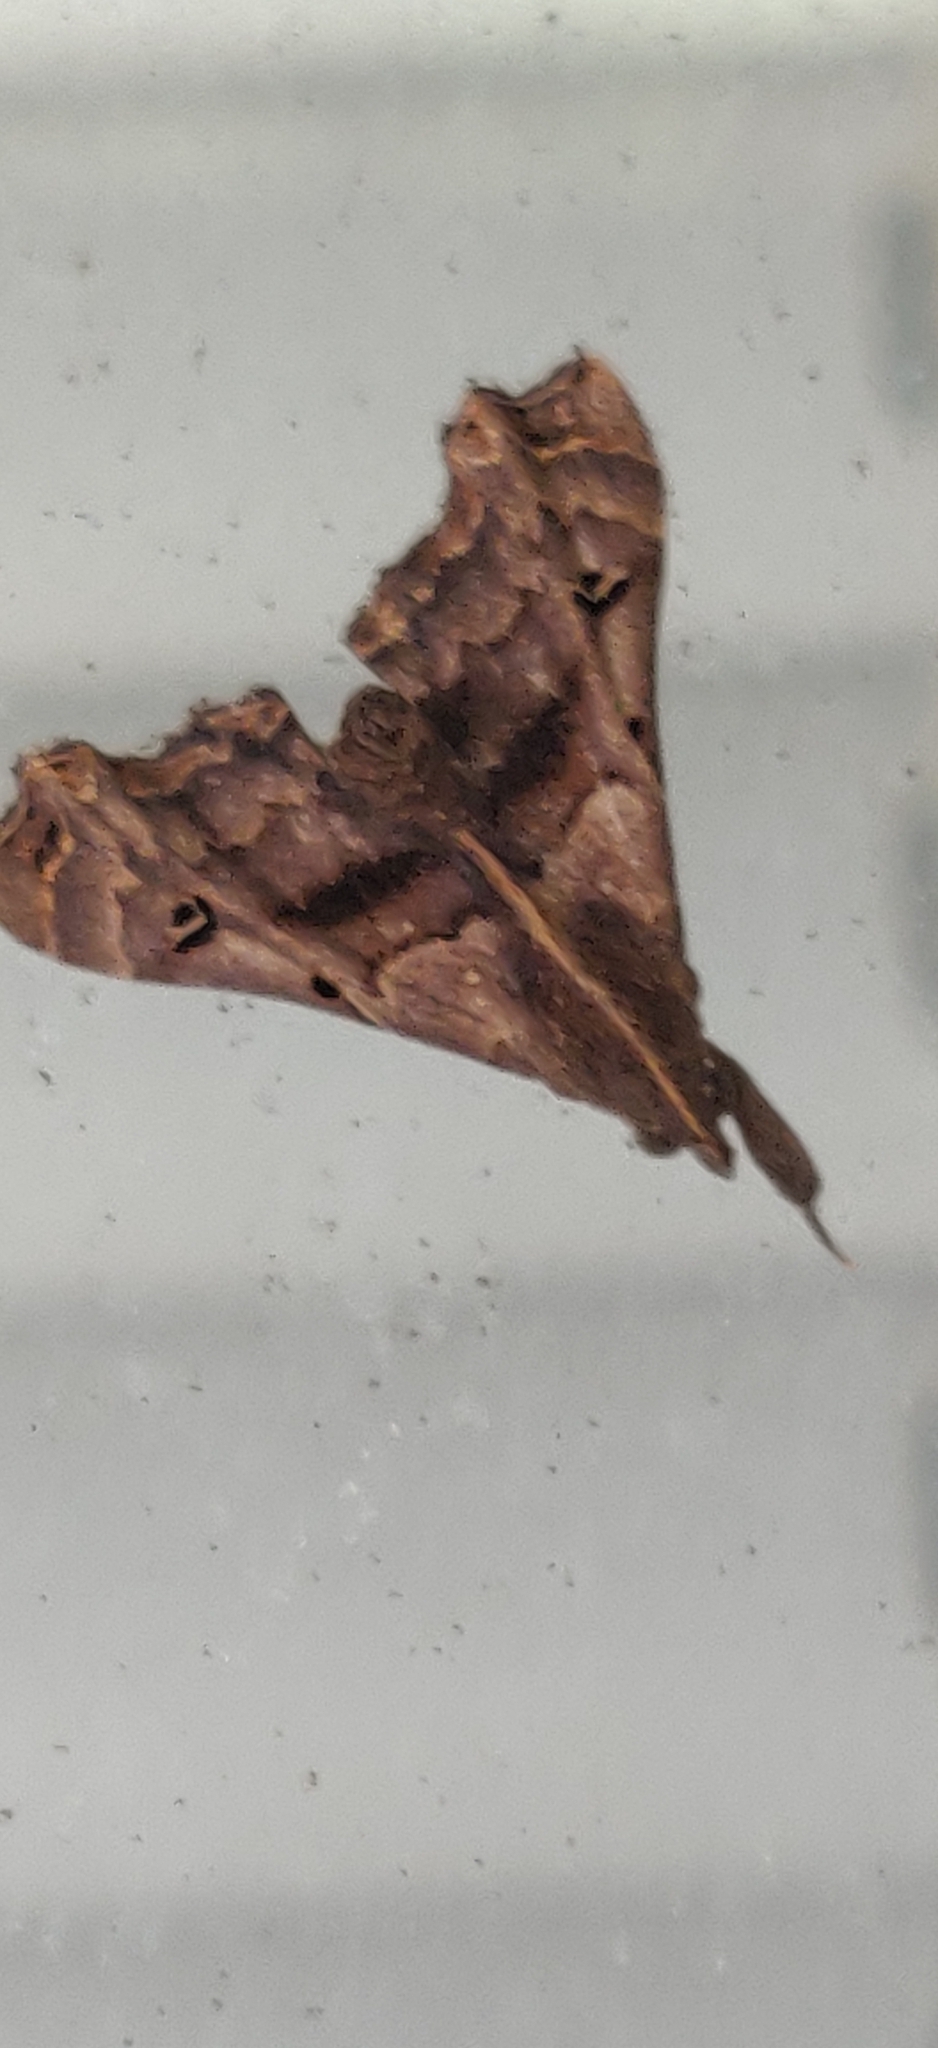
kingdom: Animalia
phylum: Arthropoda
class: Insecta
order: Lepidoptera
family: Erebidae
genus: Palthis
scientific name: Palthis asopialis
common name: Faint-spotted palthis moth
